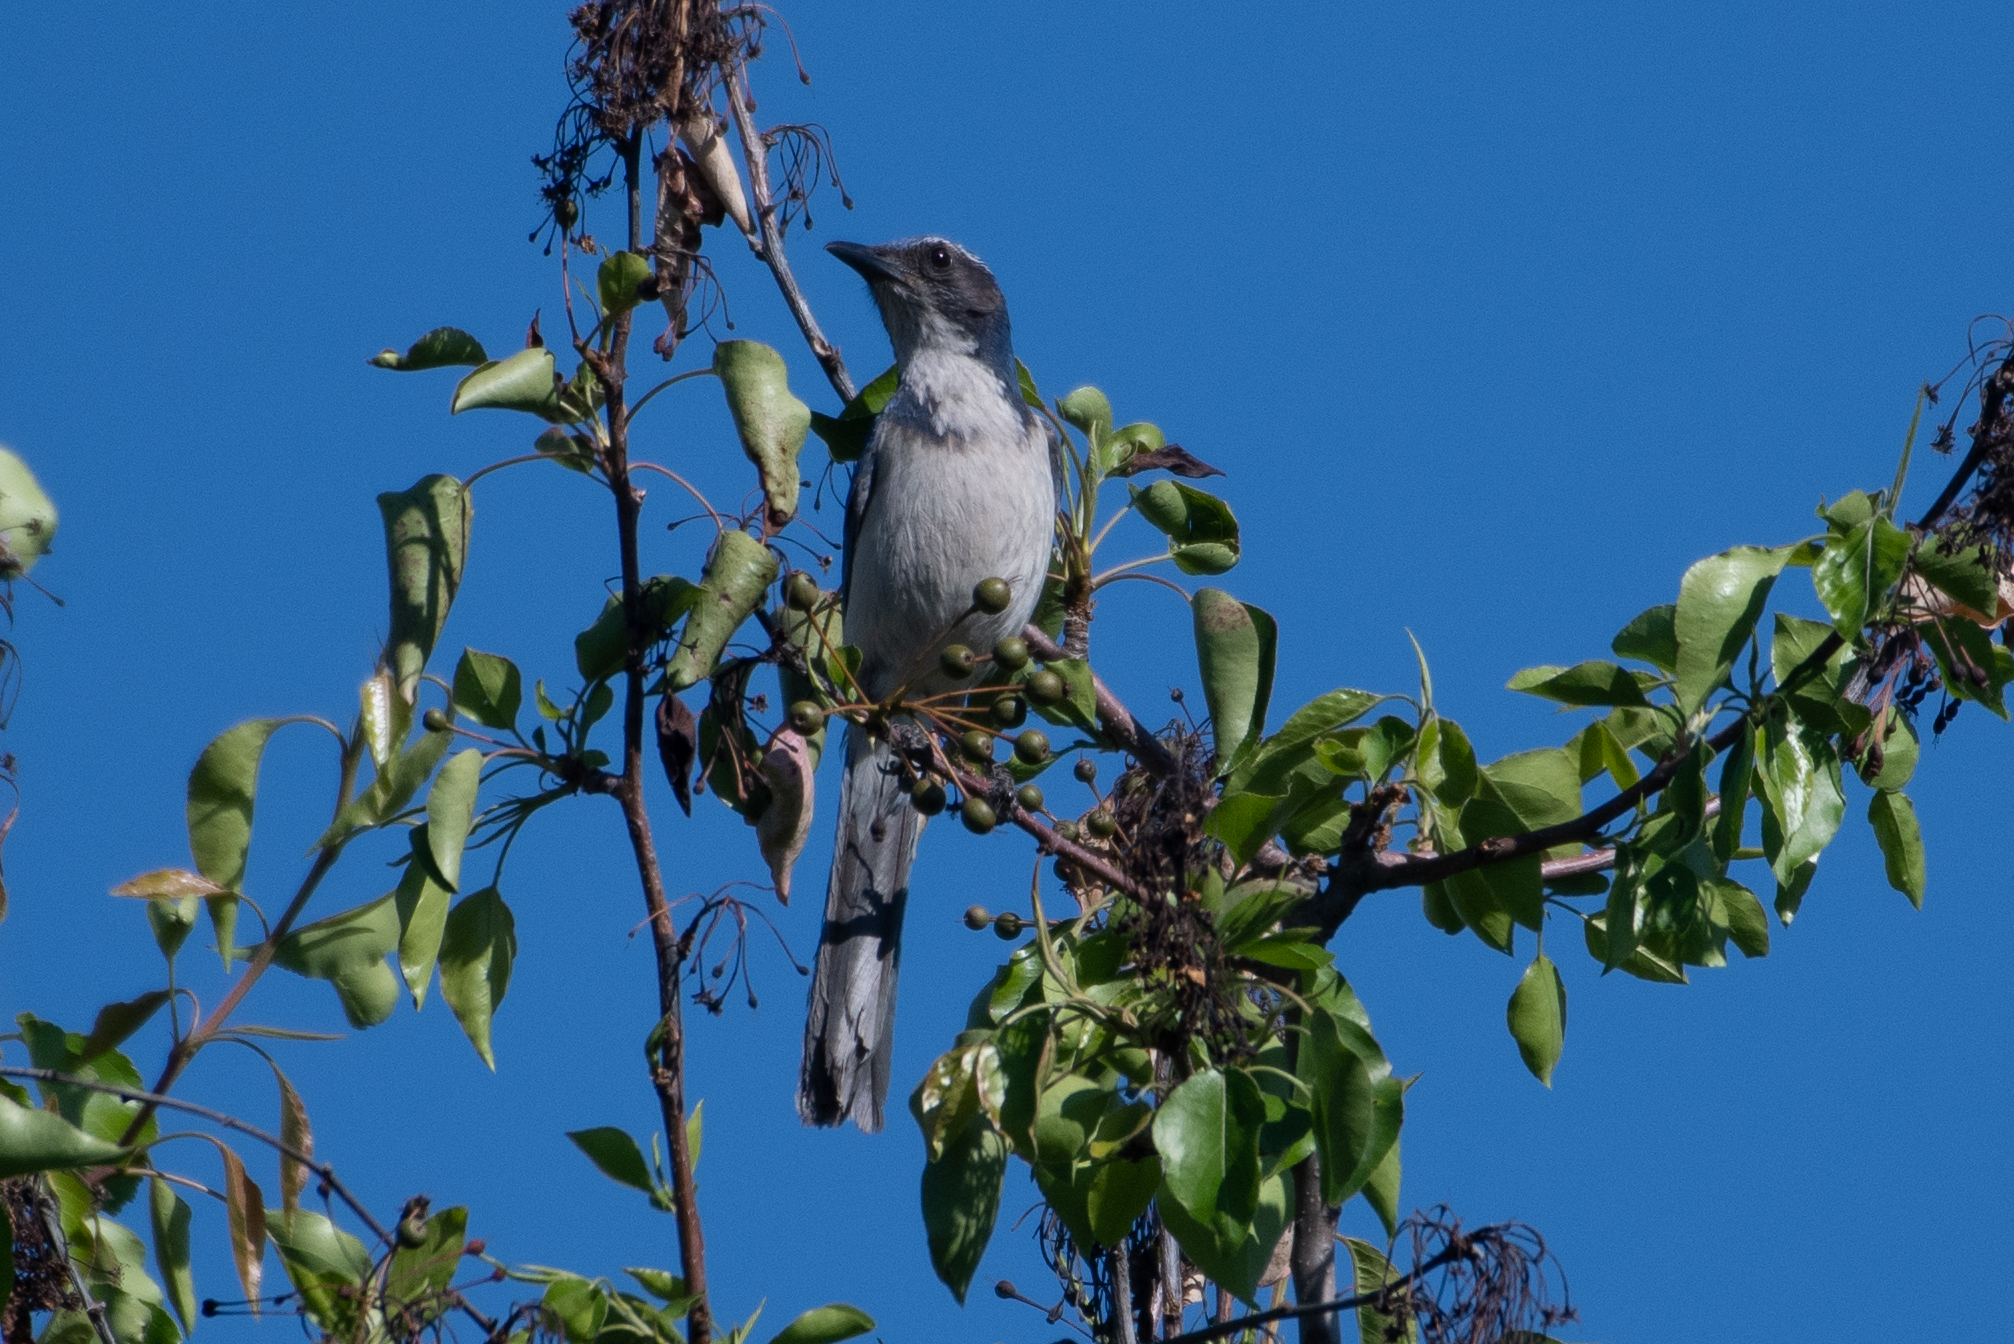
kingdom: Animalia
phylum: Chordata
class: Aves
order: Passeriformes
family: Corvidae
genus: Aphelocoma
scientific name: Aphelocoma californica
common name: California scrub-jay
